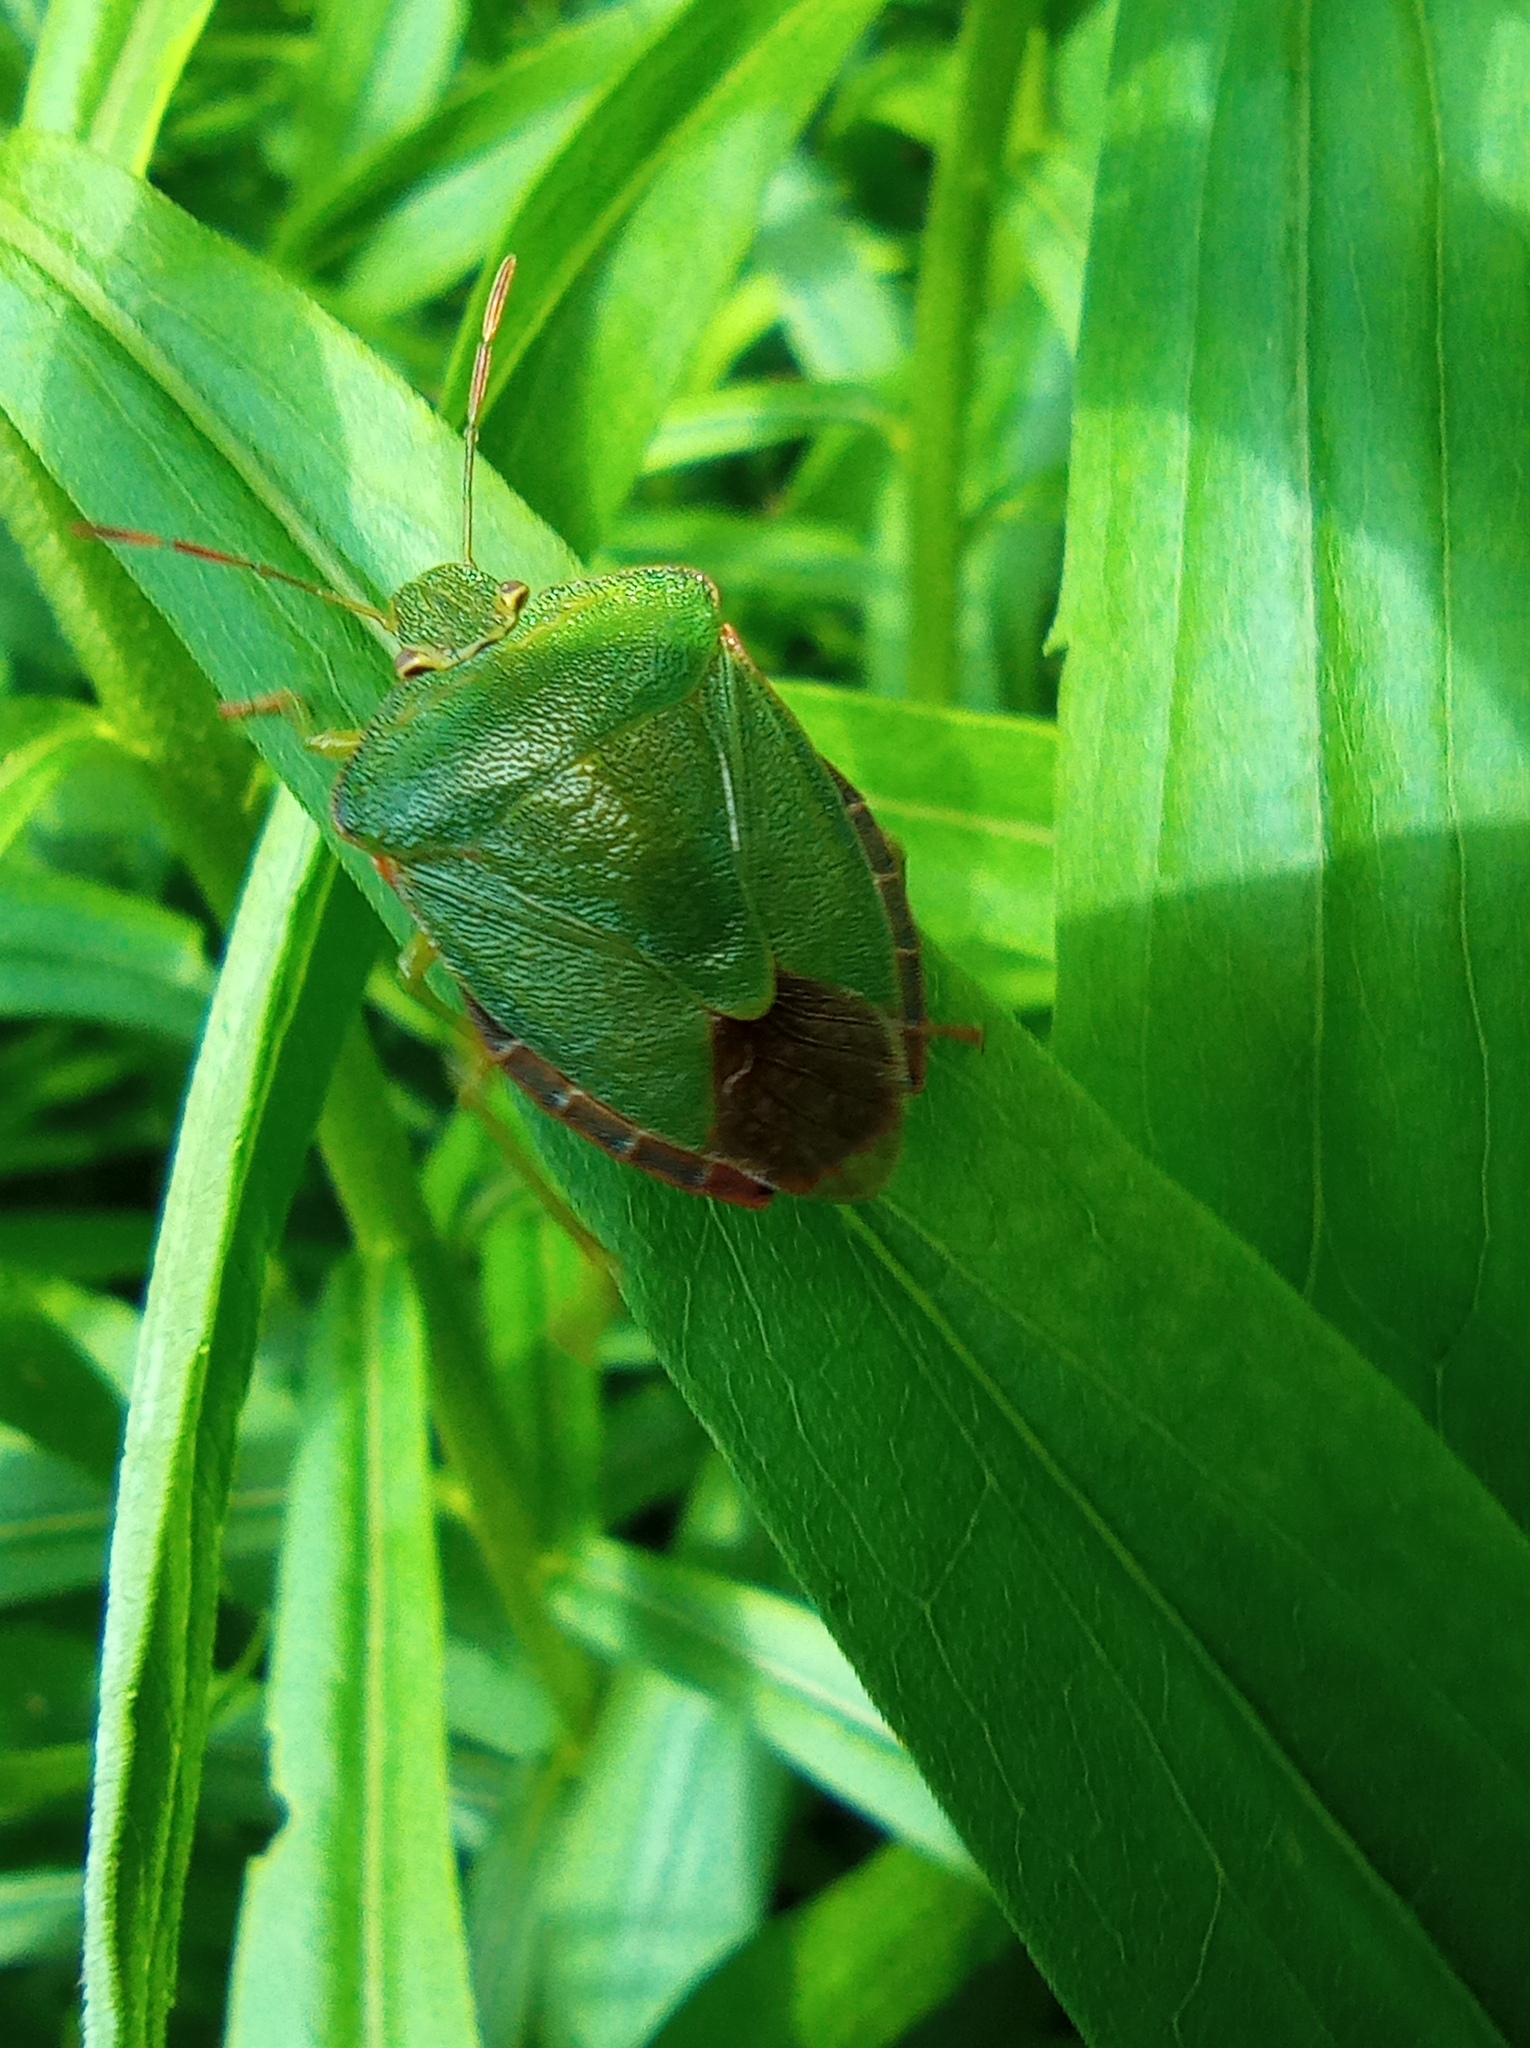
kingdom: Animalia
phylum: Arthropoda
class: Insecta
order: Hemiptera
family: Pentatomidae
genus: Palomena
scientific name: Palomena prasina
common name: Green shieldbug
